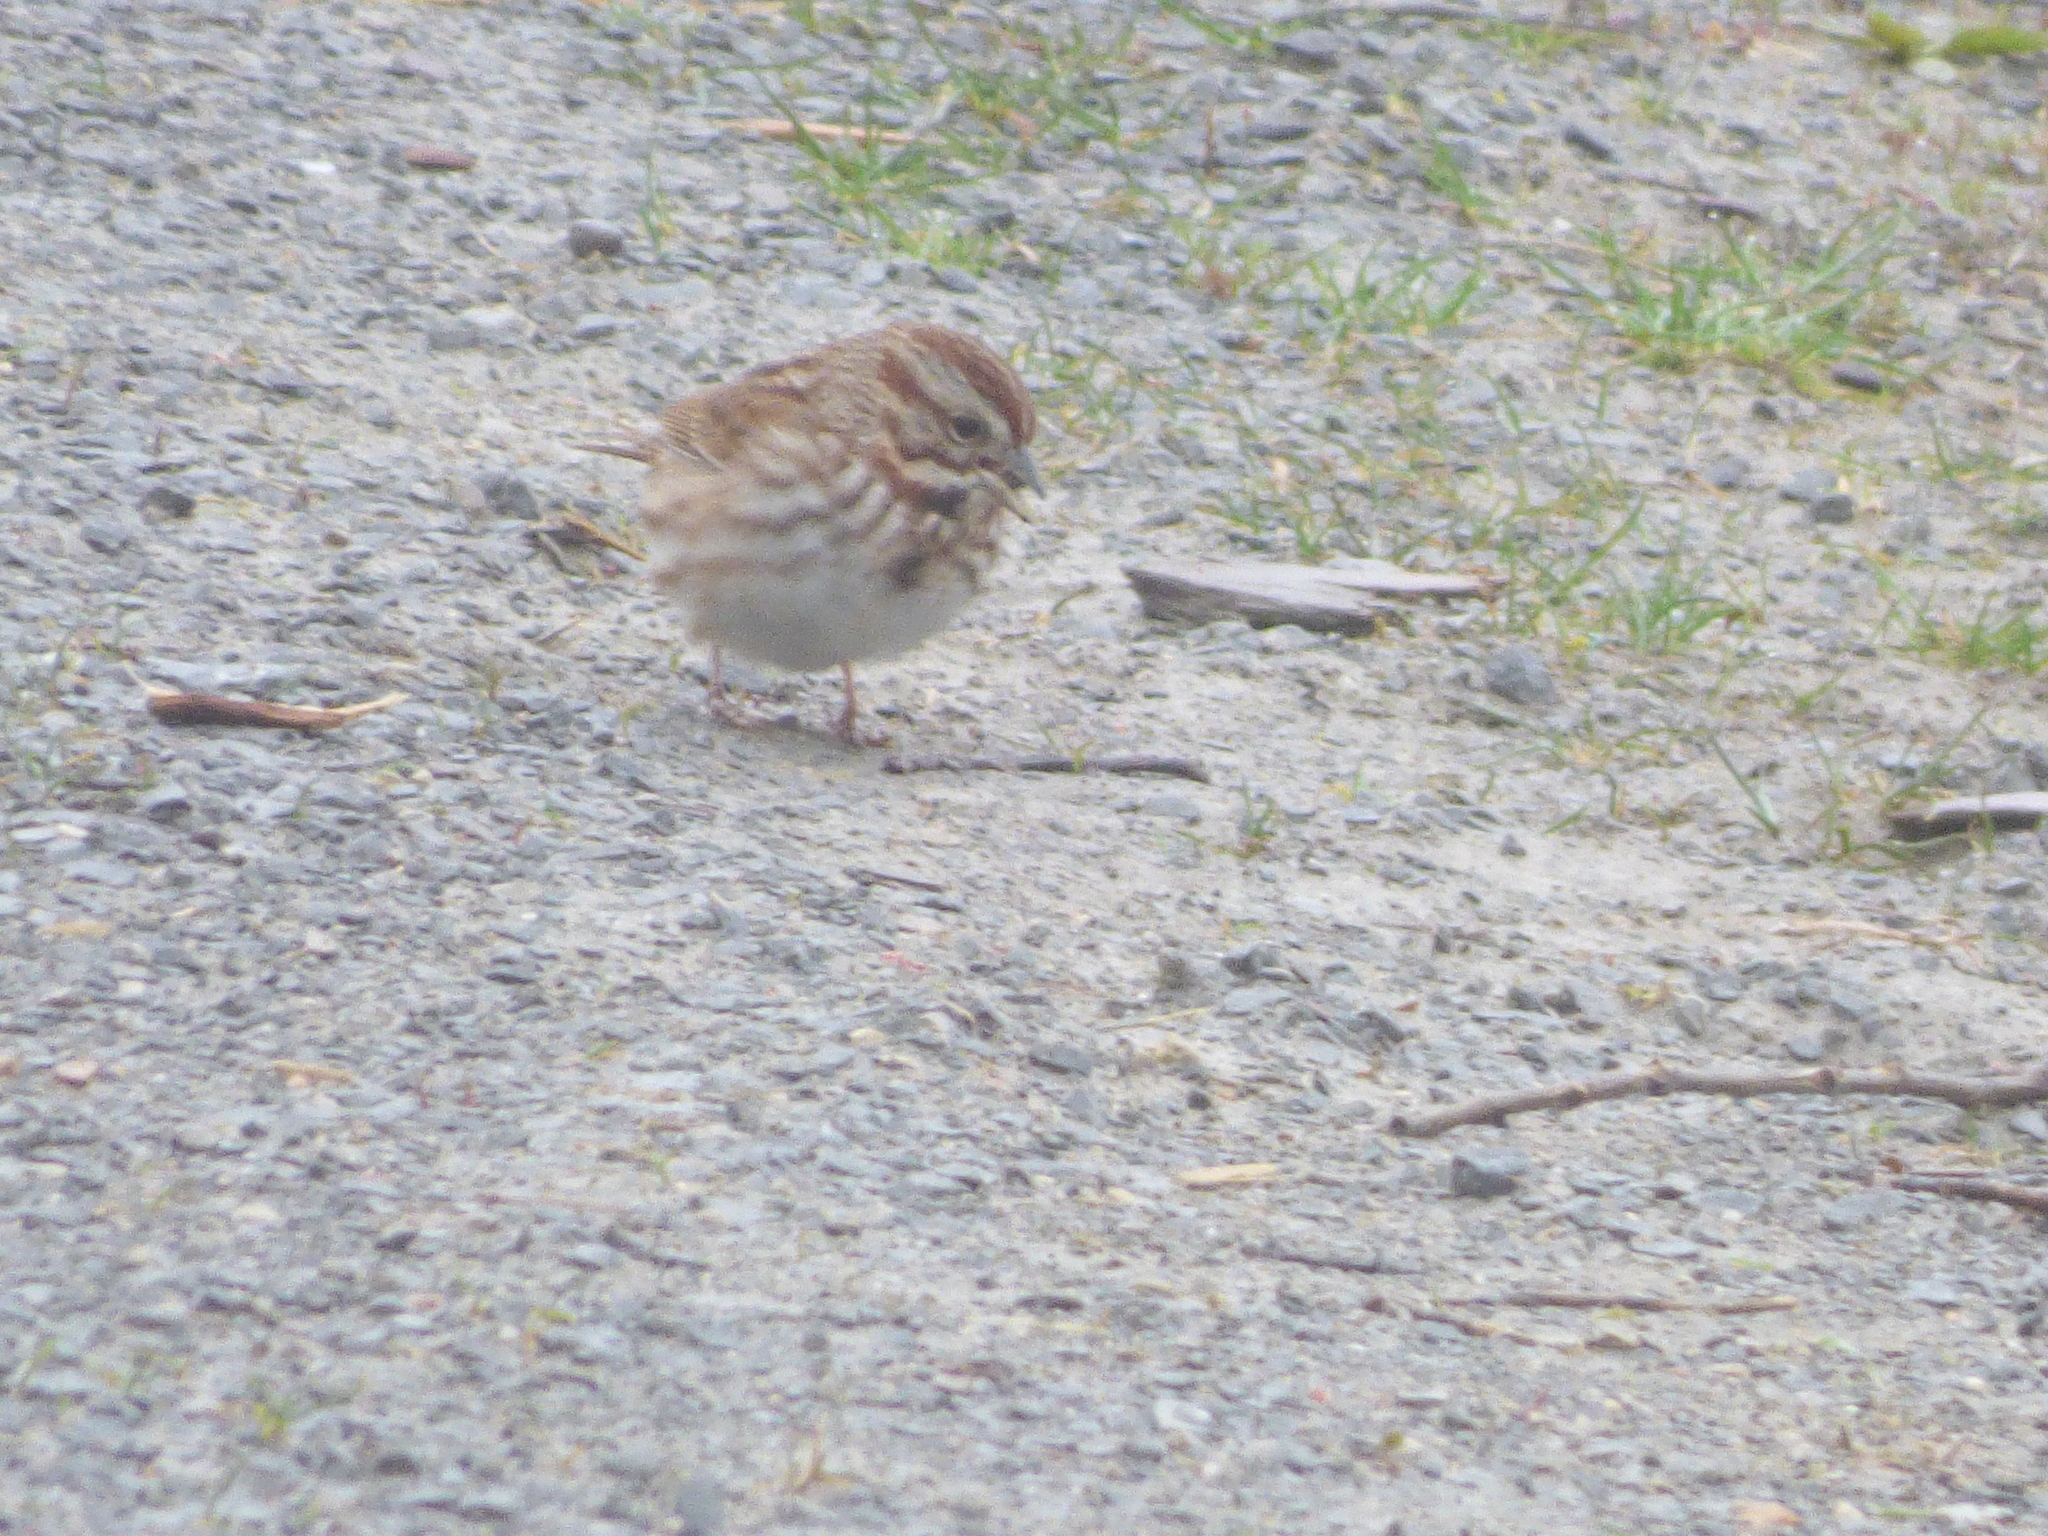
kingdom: Animalia
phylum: Chordata
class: Aves
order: Passeriformes
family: Passerellidae
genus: Melospiza
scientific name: Melospiza melodia
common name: Song sparrow
